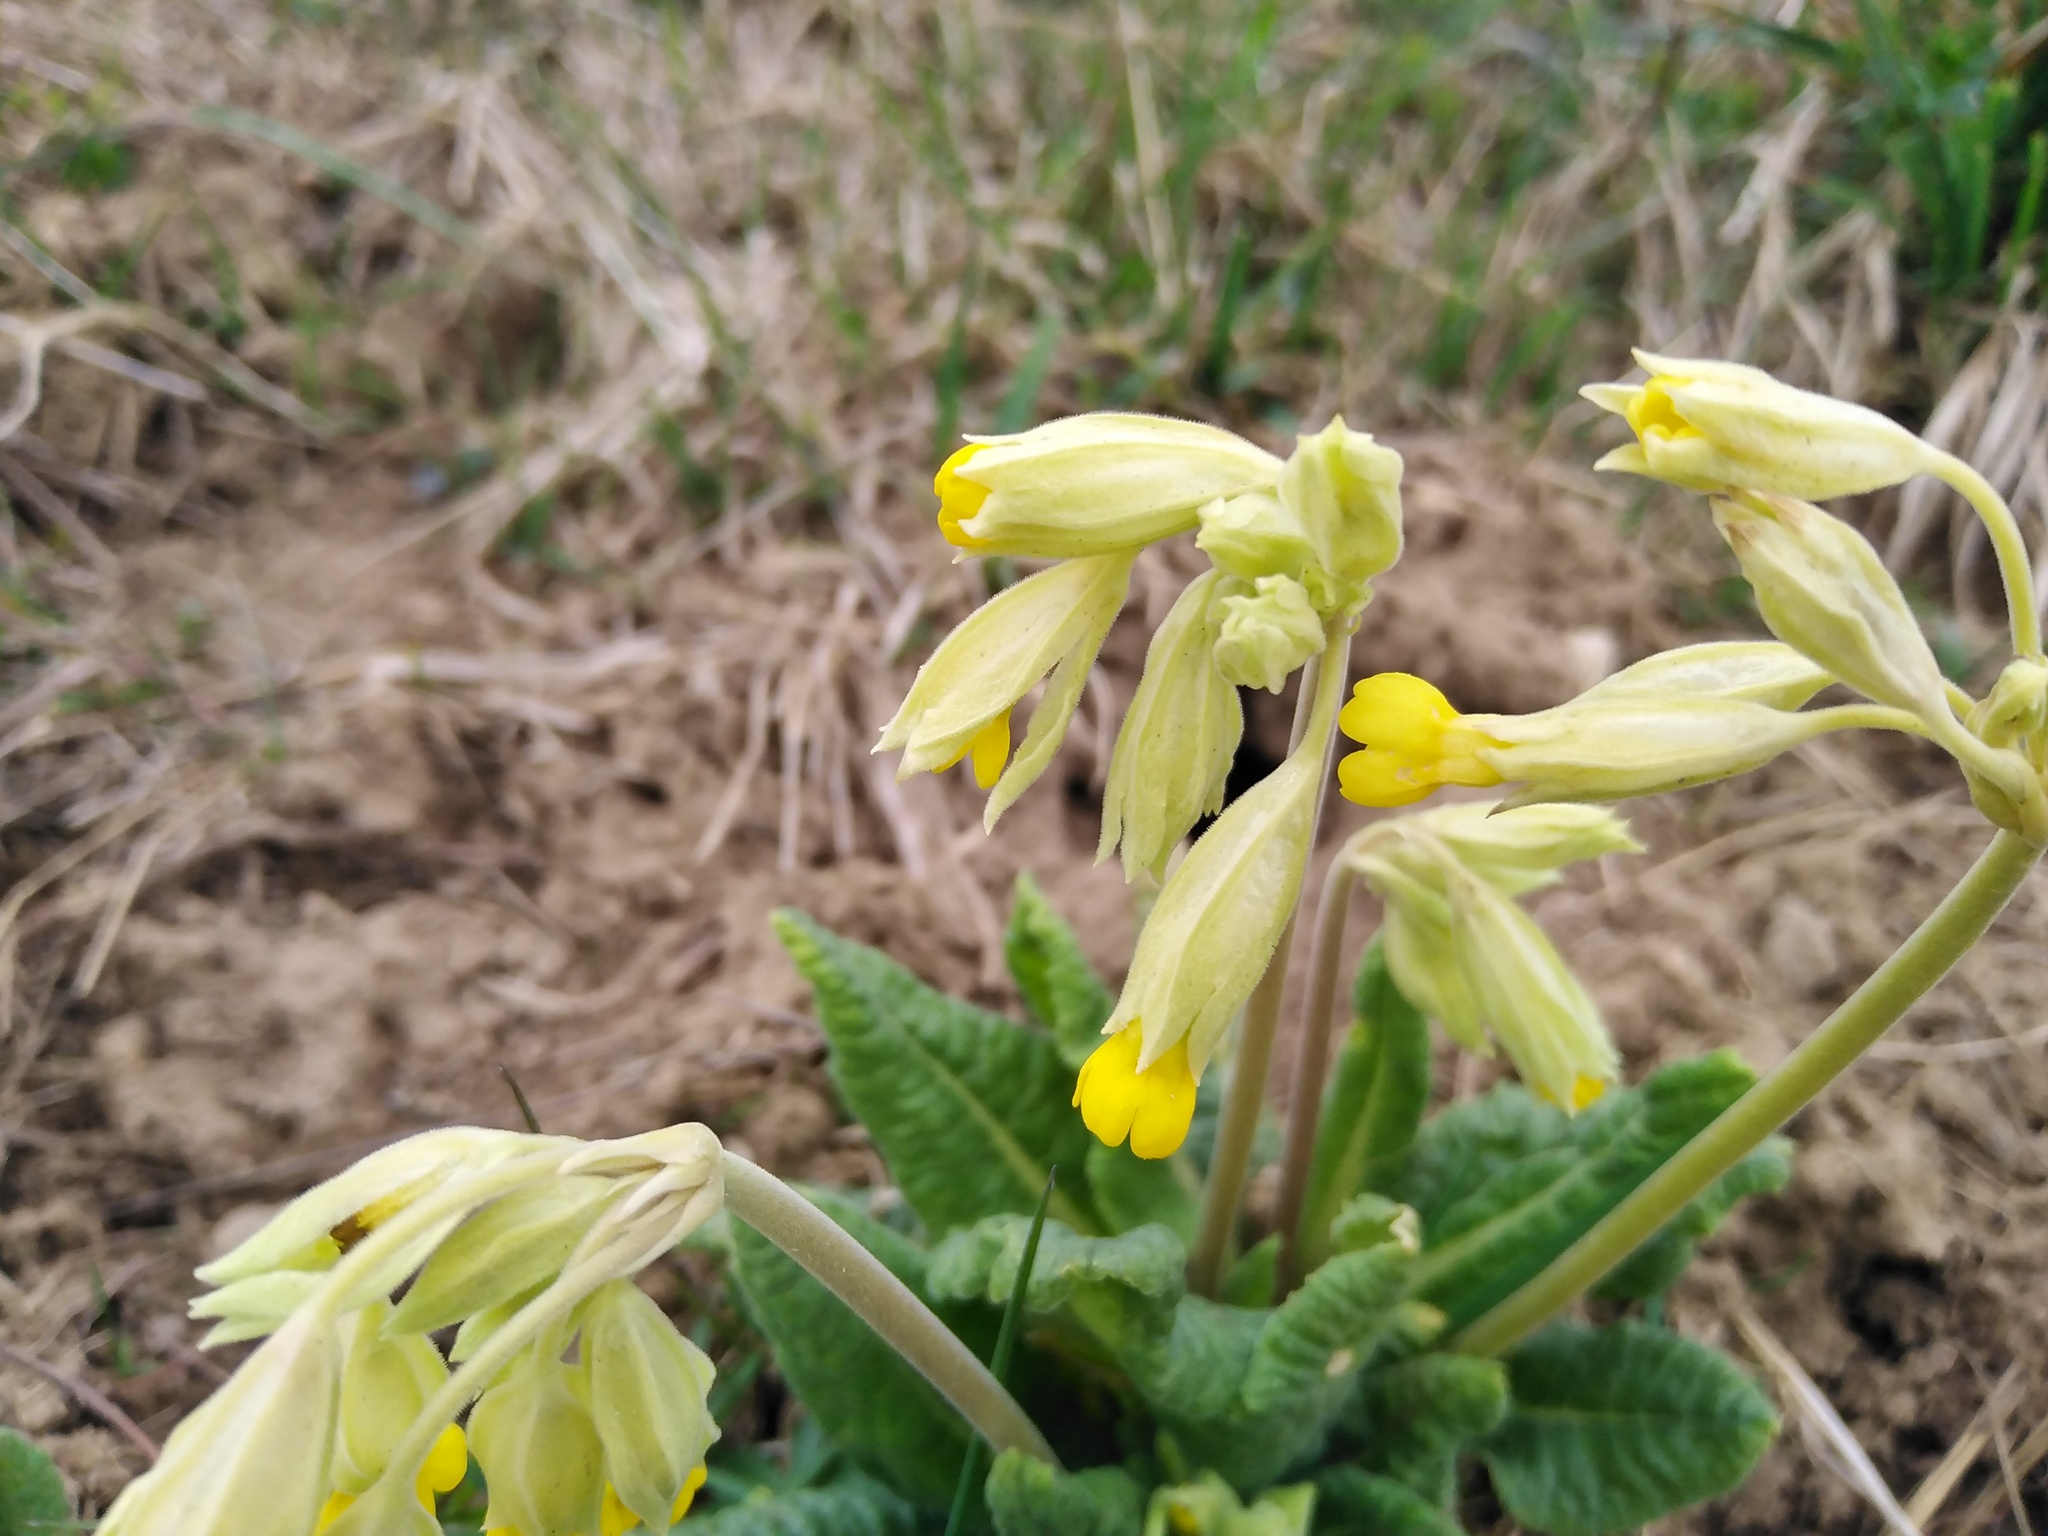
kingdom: Plantae
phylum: Tracheophyta
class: Magnoliopsida
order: Ericales
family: Primulaceae
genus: Primula
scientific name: Primula veris
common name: Cowslip
